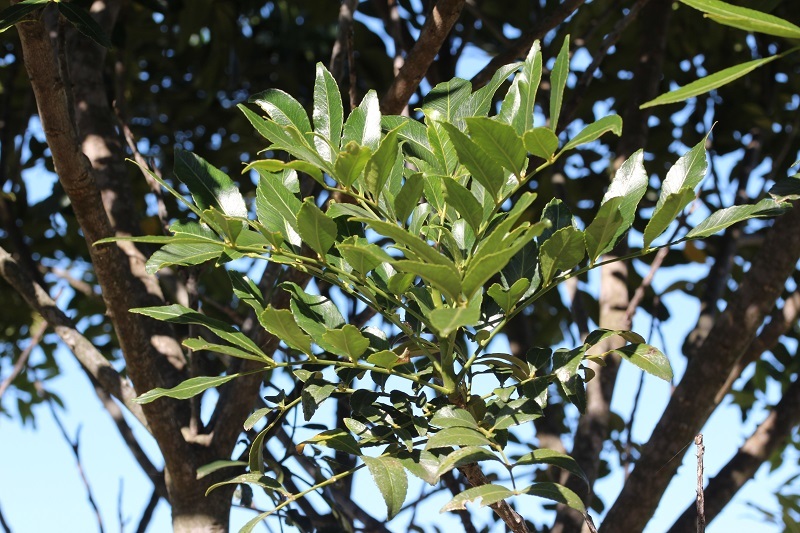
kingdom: Plantae
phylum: Tracheophyta
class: Magnoliopsida
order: Sapindales
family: Rutaceae
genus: Zanthoxylum
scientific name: Zanthoxylum davyi
